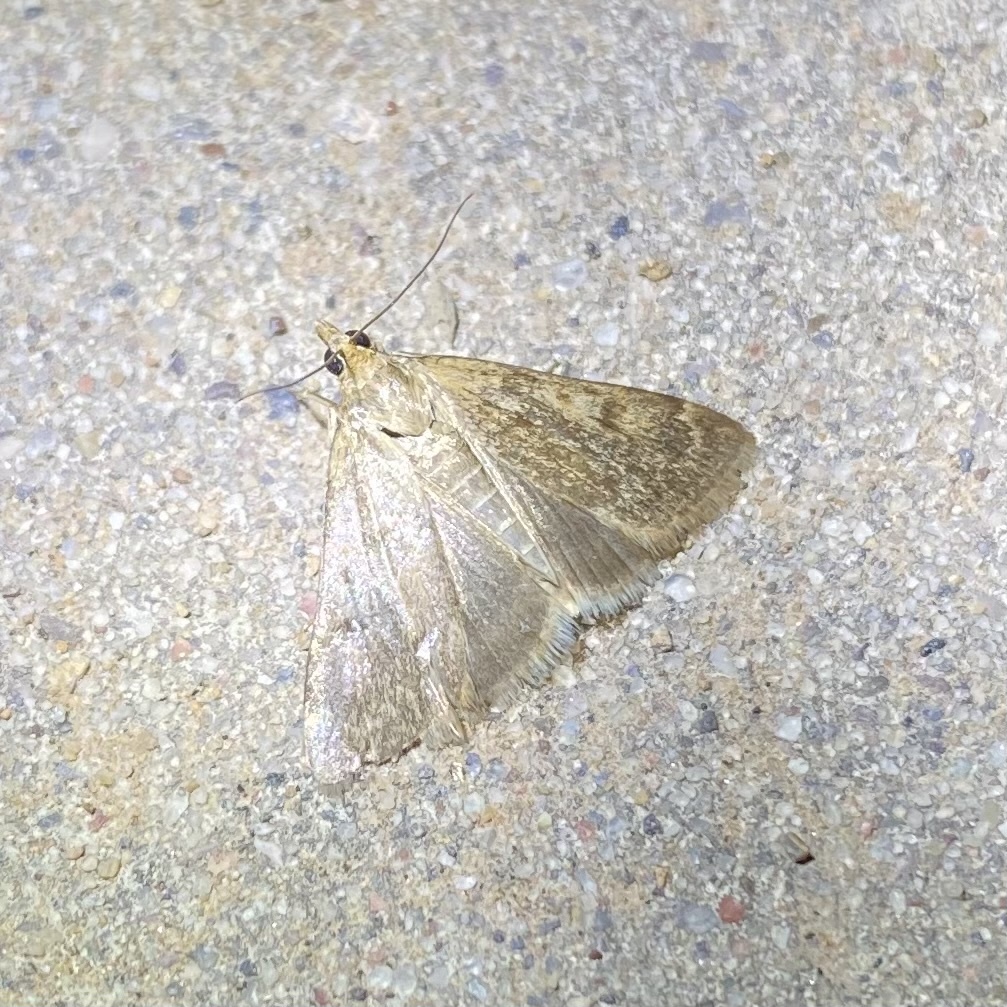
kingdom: Animalia
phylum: Arthropoda
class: Insecta
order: Lepidoptera
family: Crambidae
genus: Achyra
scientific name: Achyra rantalis
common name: Garden webworm
